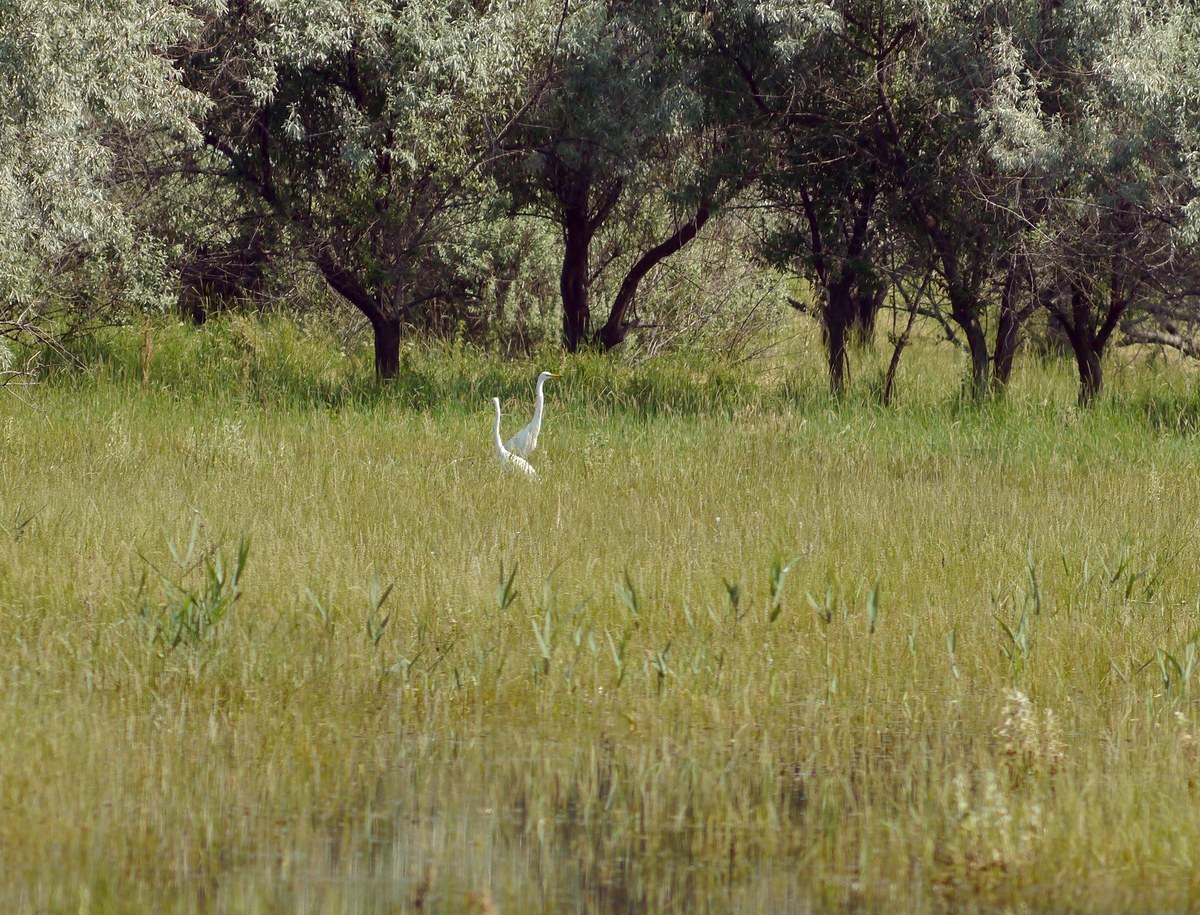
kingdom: Animalia
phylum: Chordata
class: Aves
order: Pelecaniformes
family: Ardeidae
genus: Ardea
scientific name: Ardea alba
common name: Great egret
